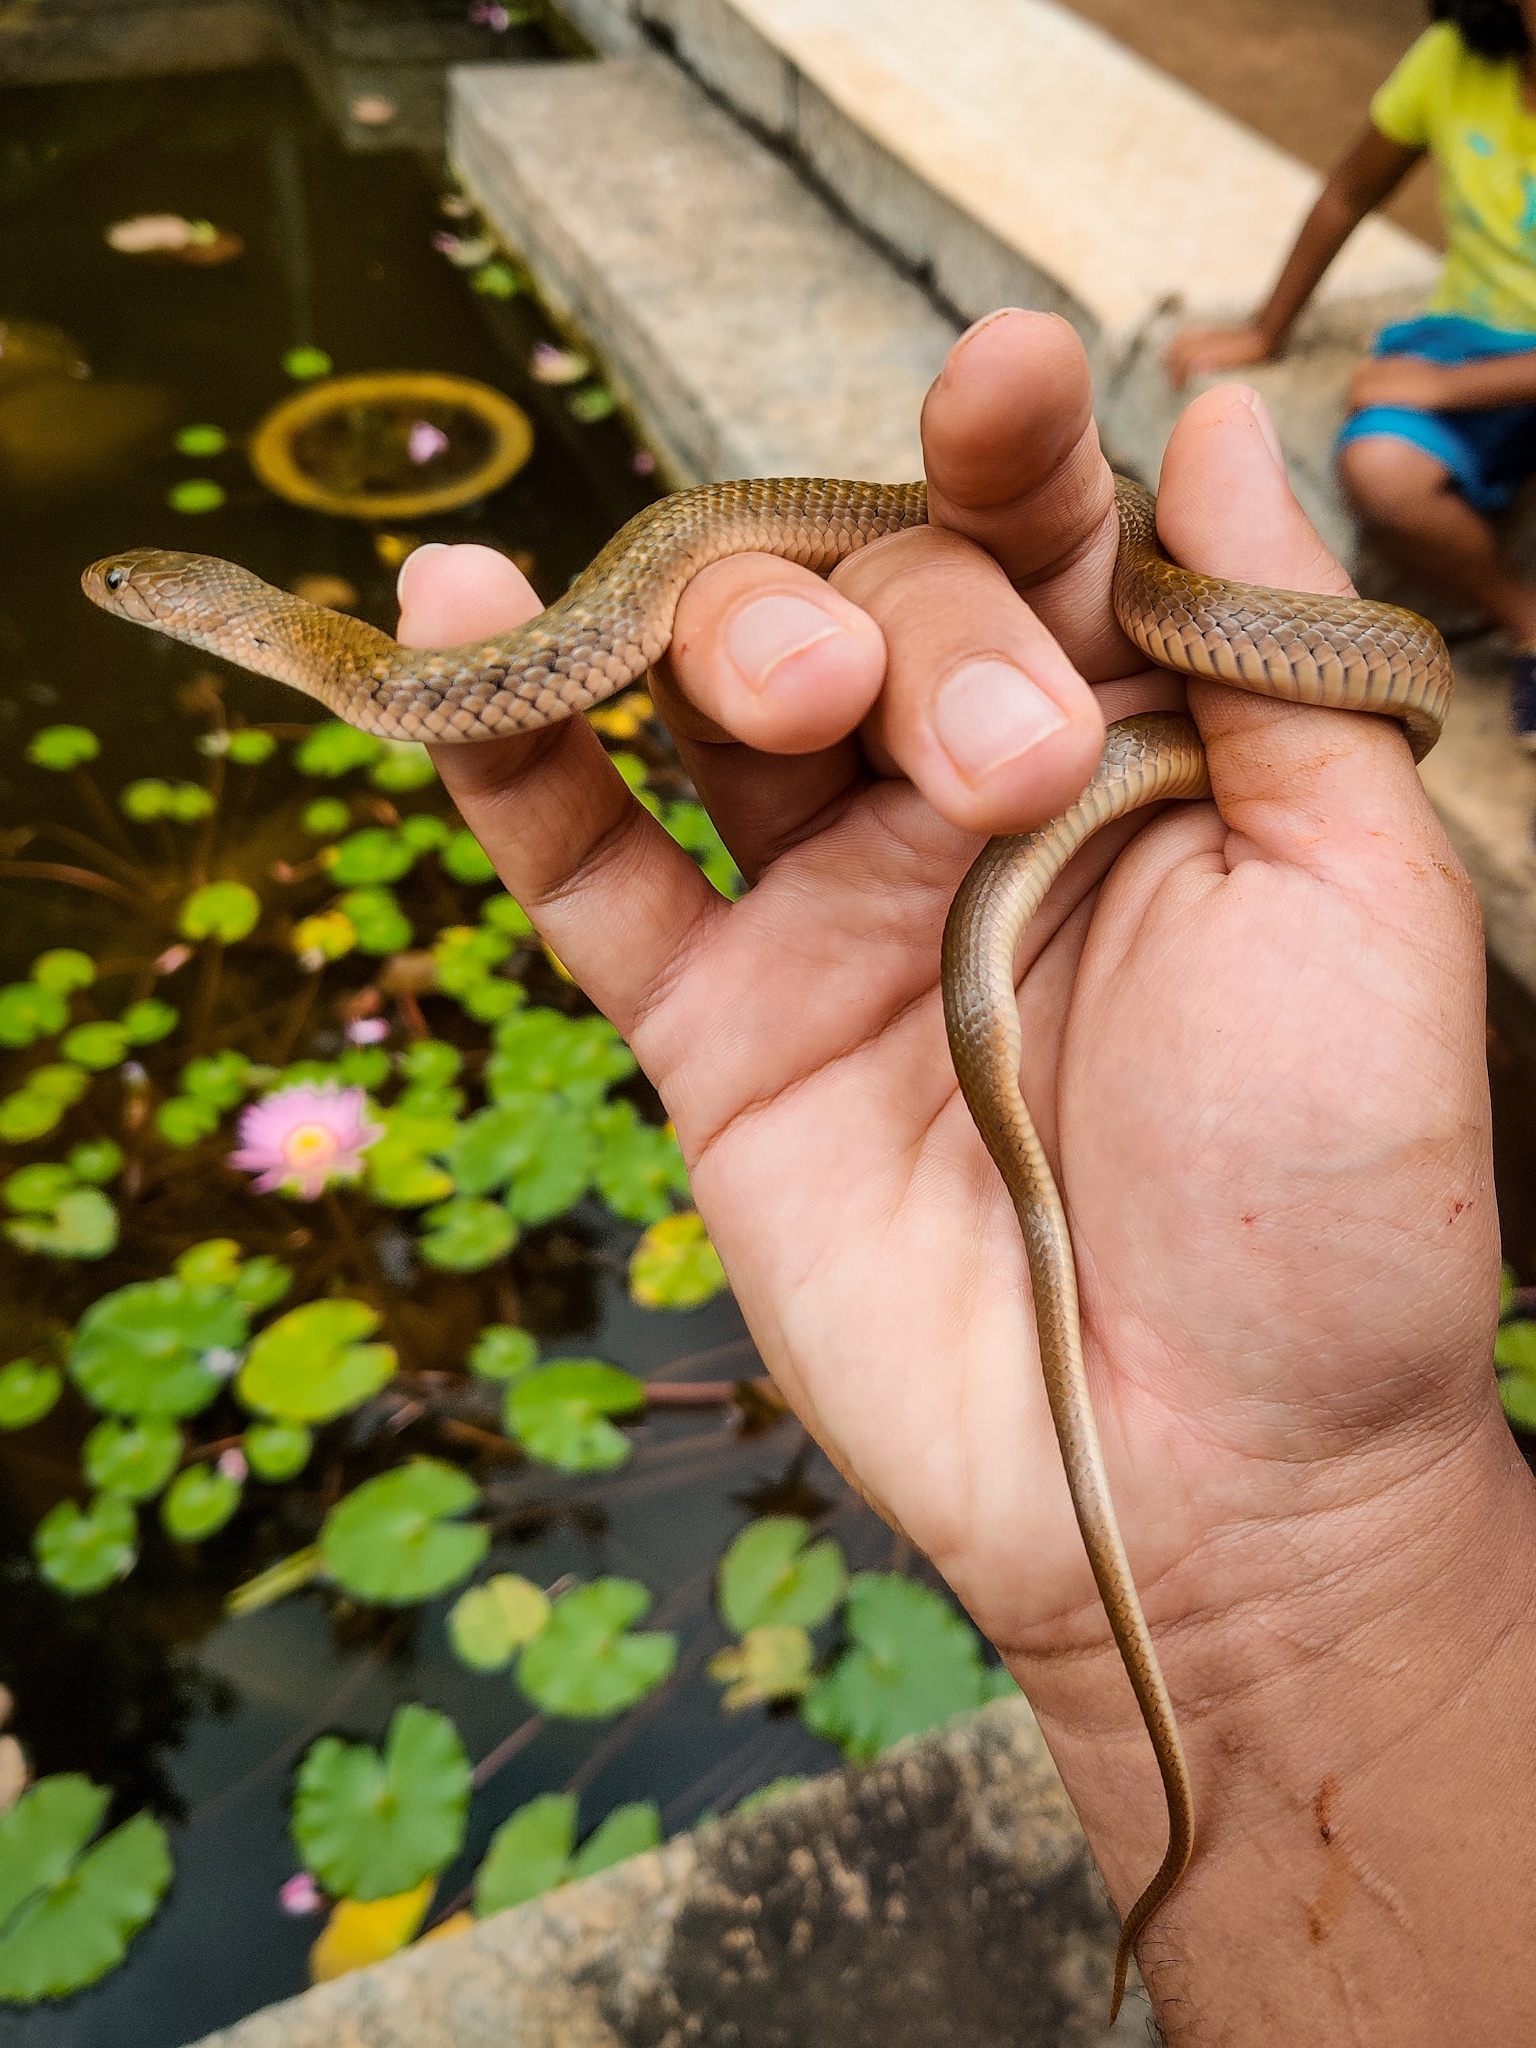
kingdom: Animalia
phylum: Chordata
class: Squamata
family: Colubridae
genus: Fowlea
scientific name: Fowlea piscator
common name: Asiatic water snake
